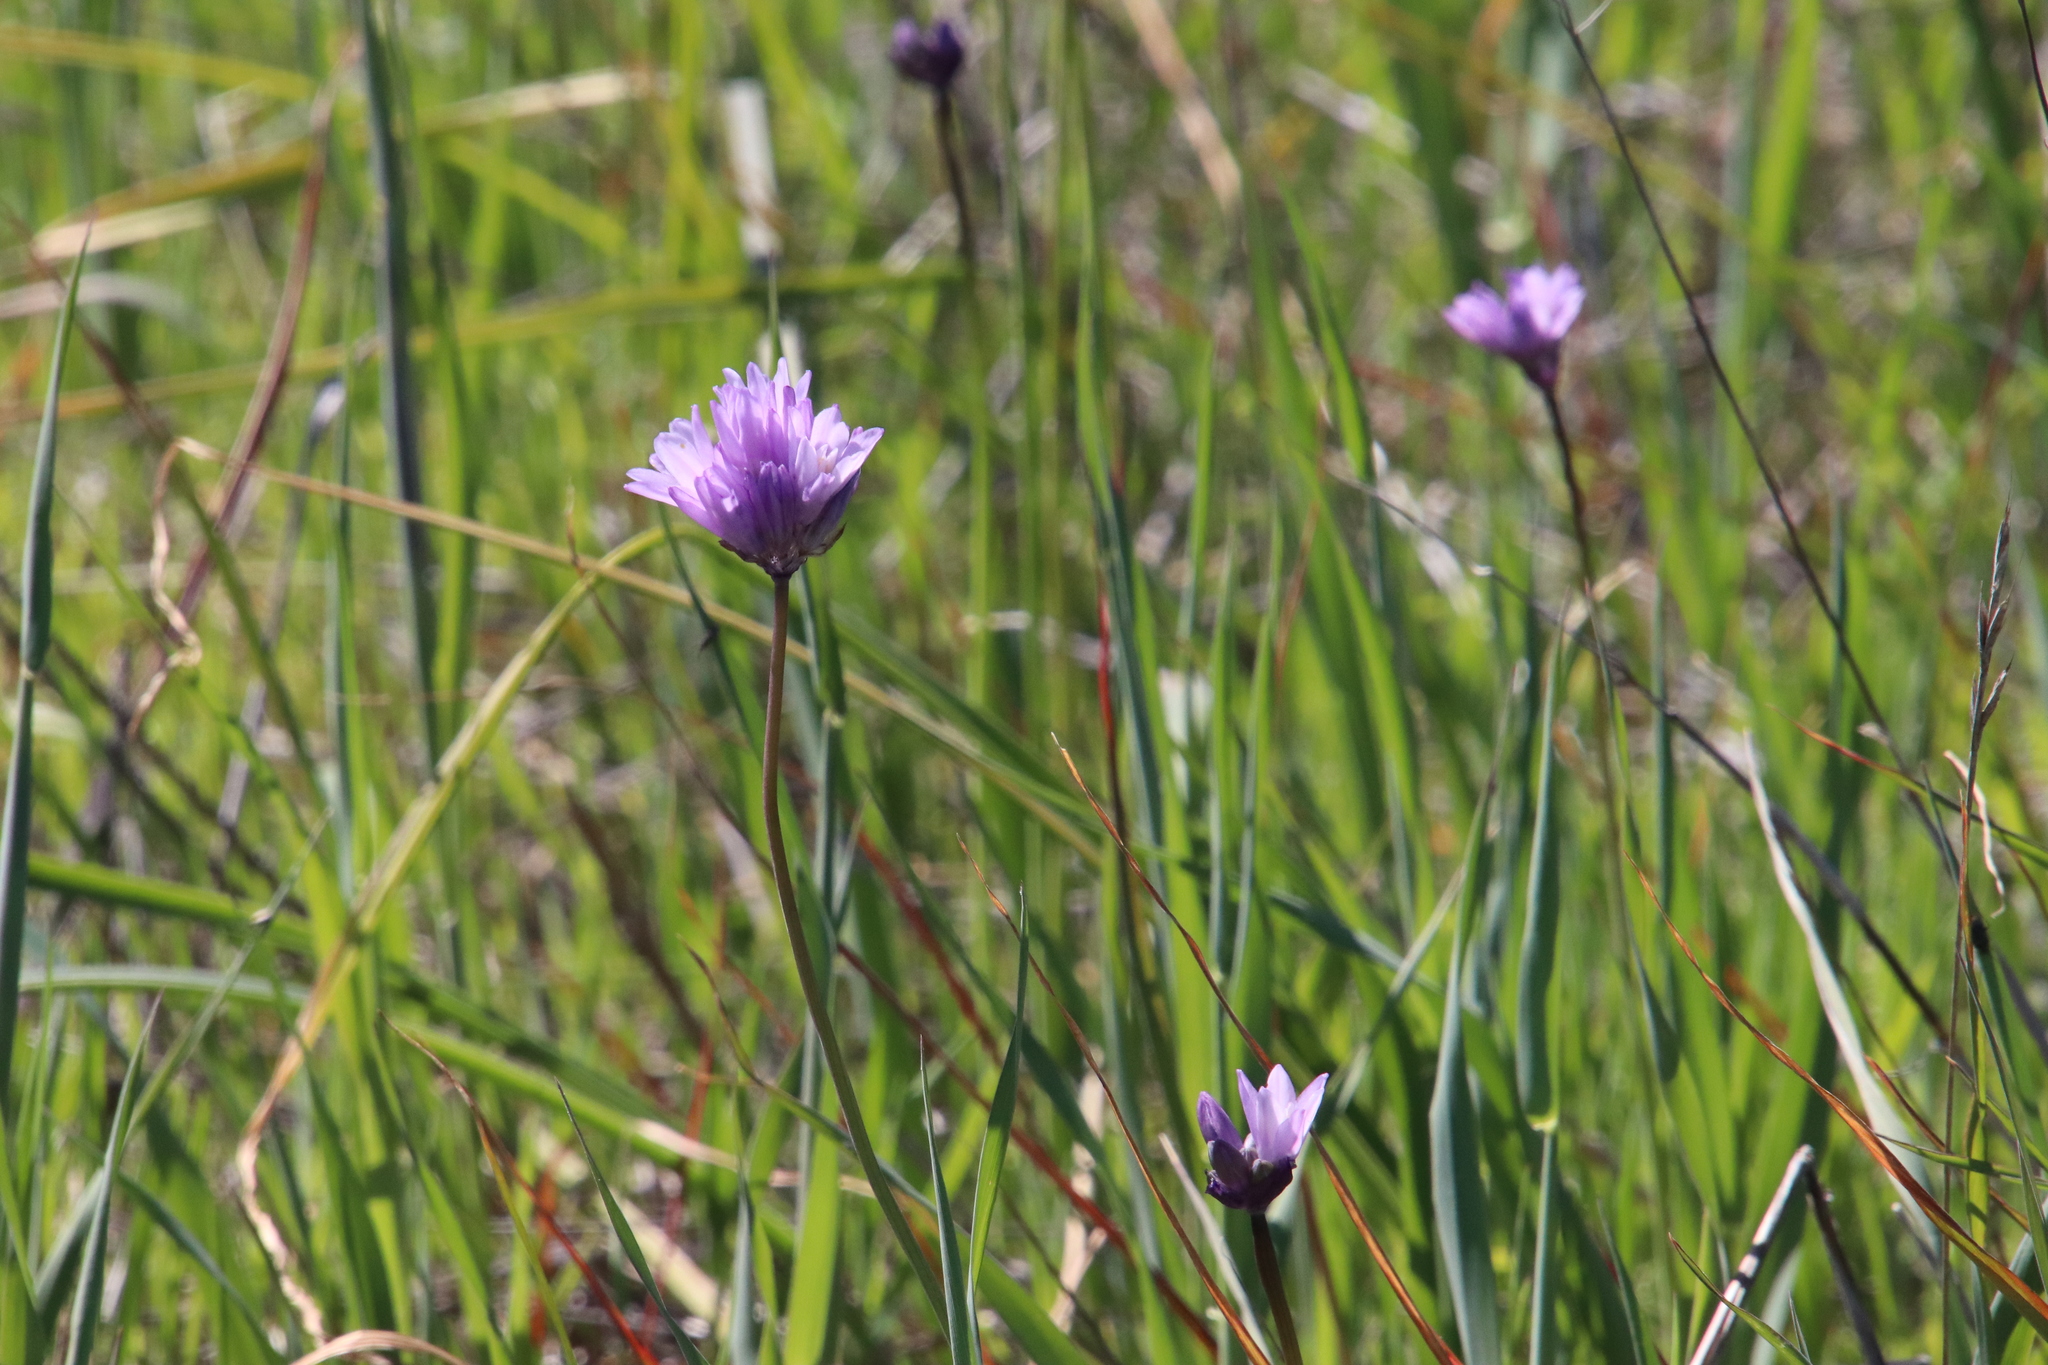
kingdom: Plantae
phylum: Tracheophyta
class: Liliopsida
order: Asparagales
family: Asparagaceae
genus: Dipterostemon
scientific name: Dipterostemon capitatus
